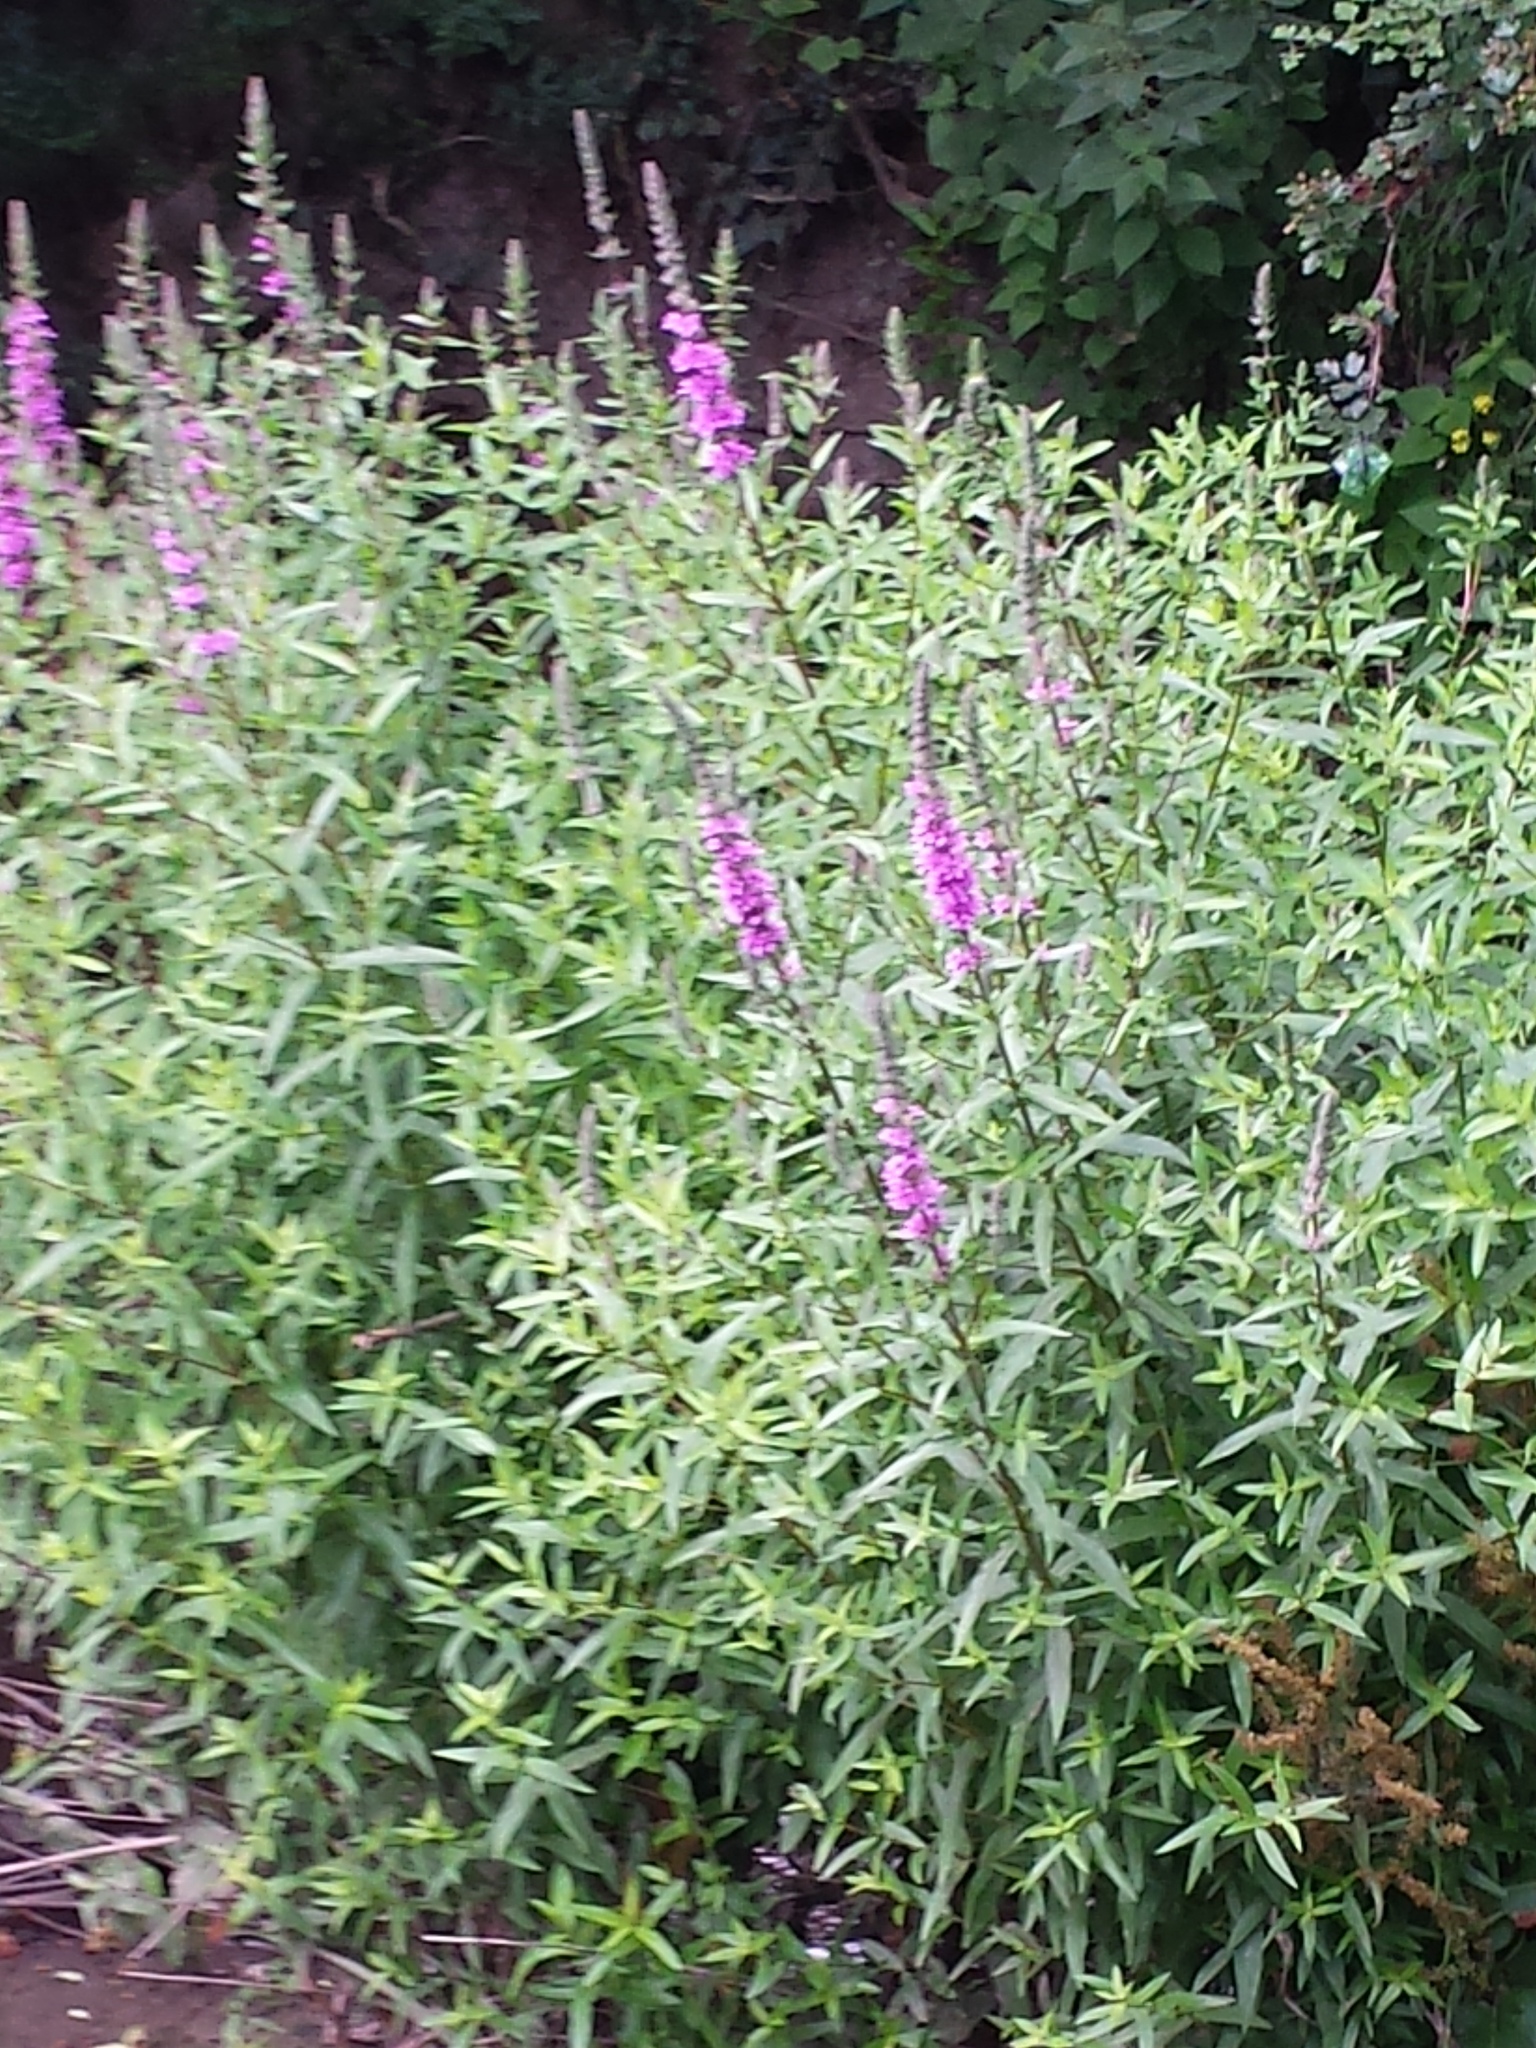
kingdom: Plantae
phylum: Tracheophyta
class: Magnoliopsida
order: Myrtales
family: Lythraceae
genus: Lythrum
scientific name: Lythrum salicaria
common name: Purple loosestrife
